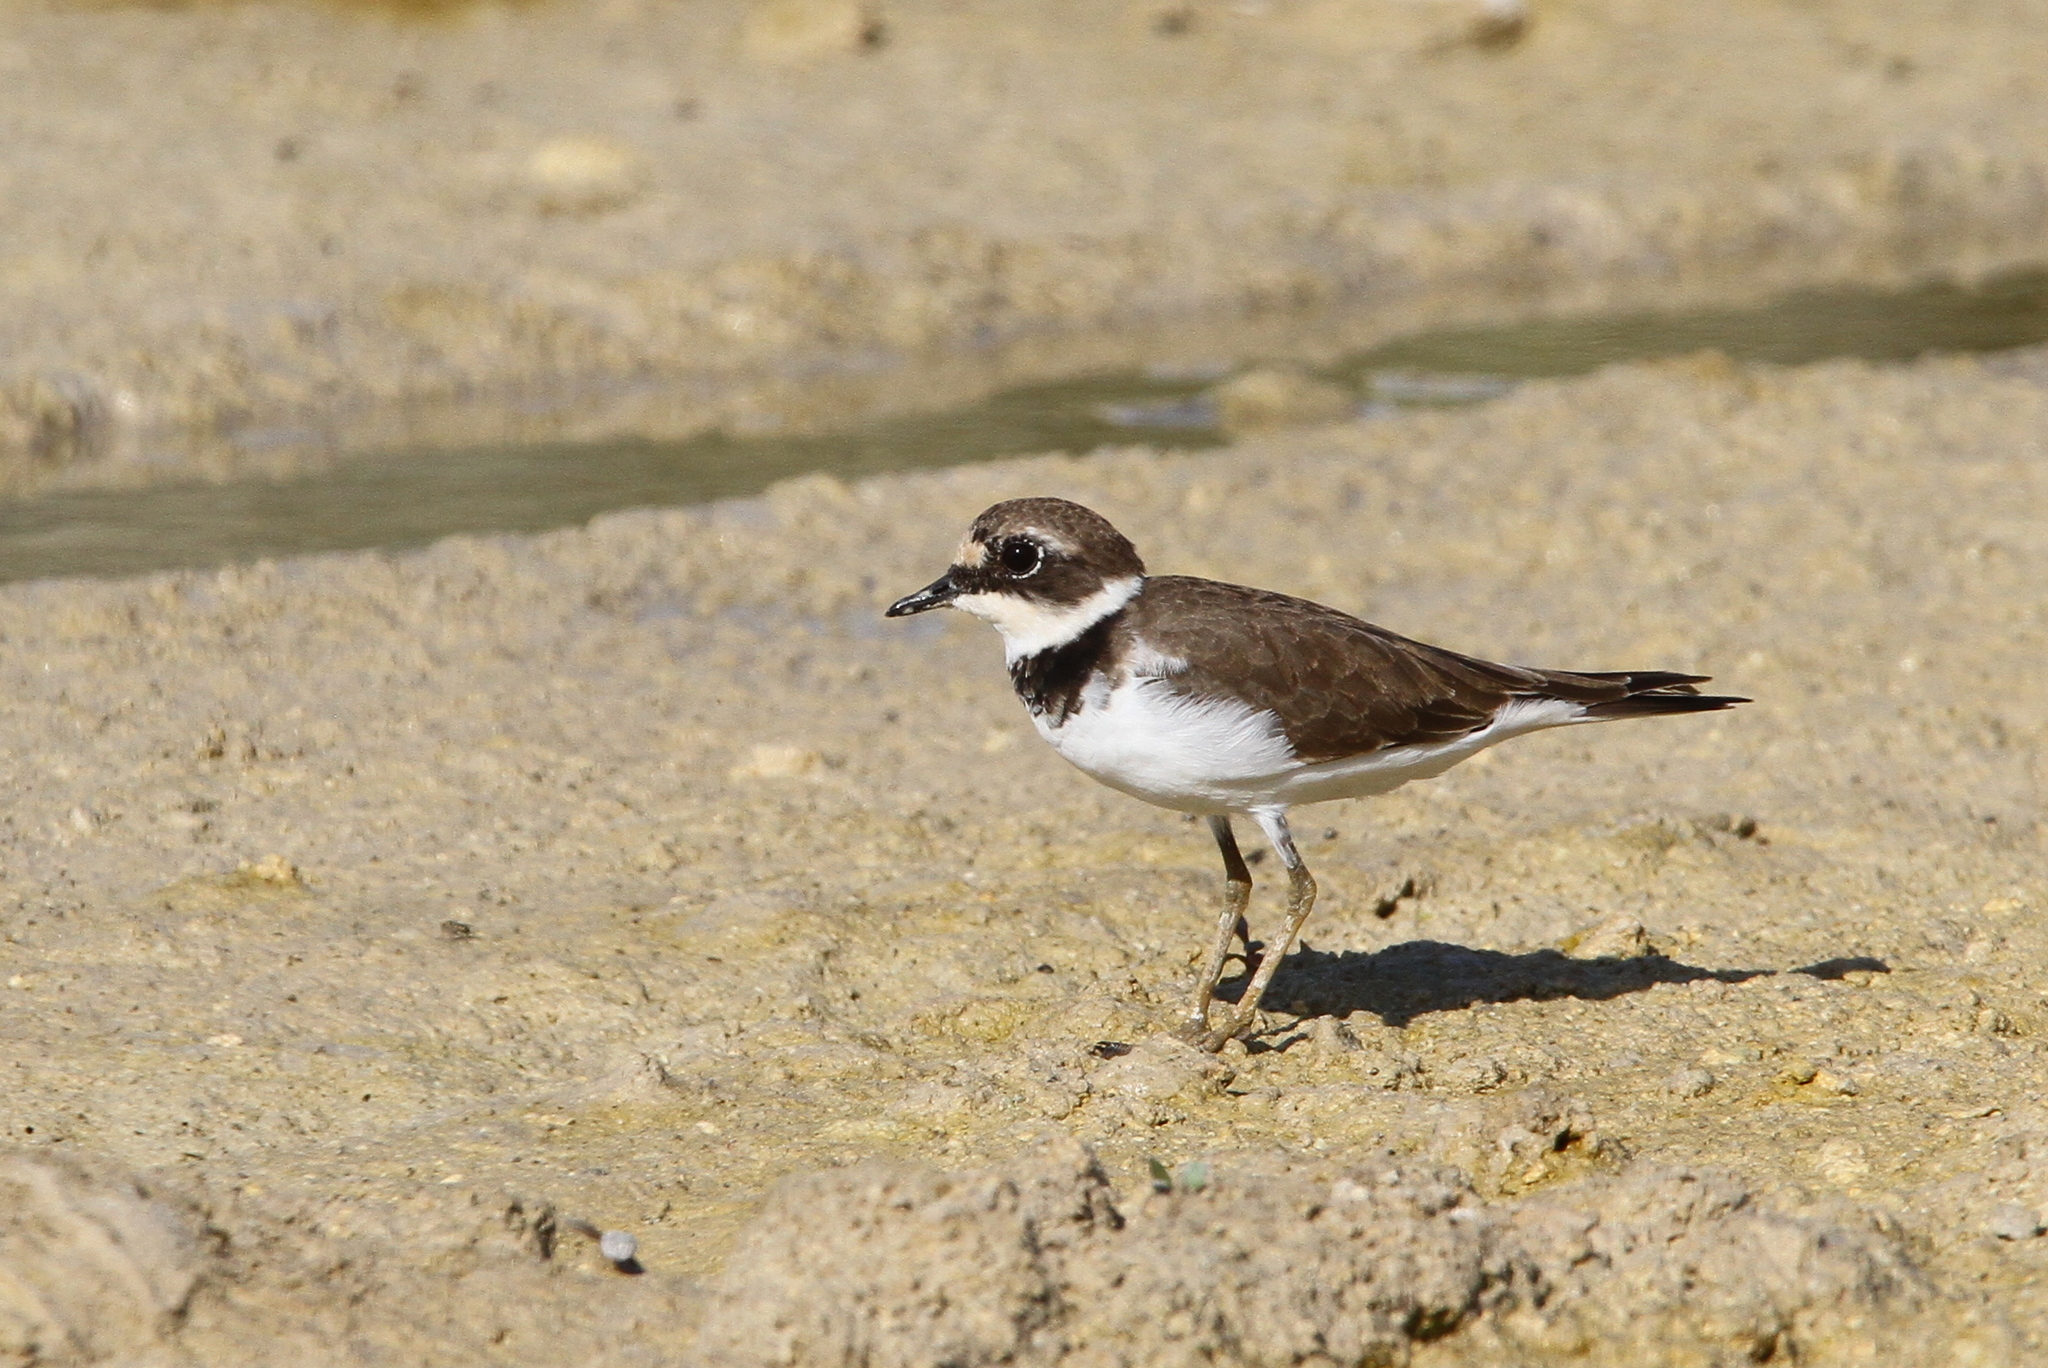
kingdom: Animalia
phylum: Chordata
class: Aves
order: Charadriiformes
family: Charadriidae
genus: Charadrius
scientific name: Charadrius dubius
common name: Little ringed plover
